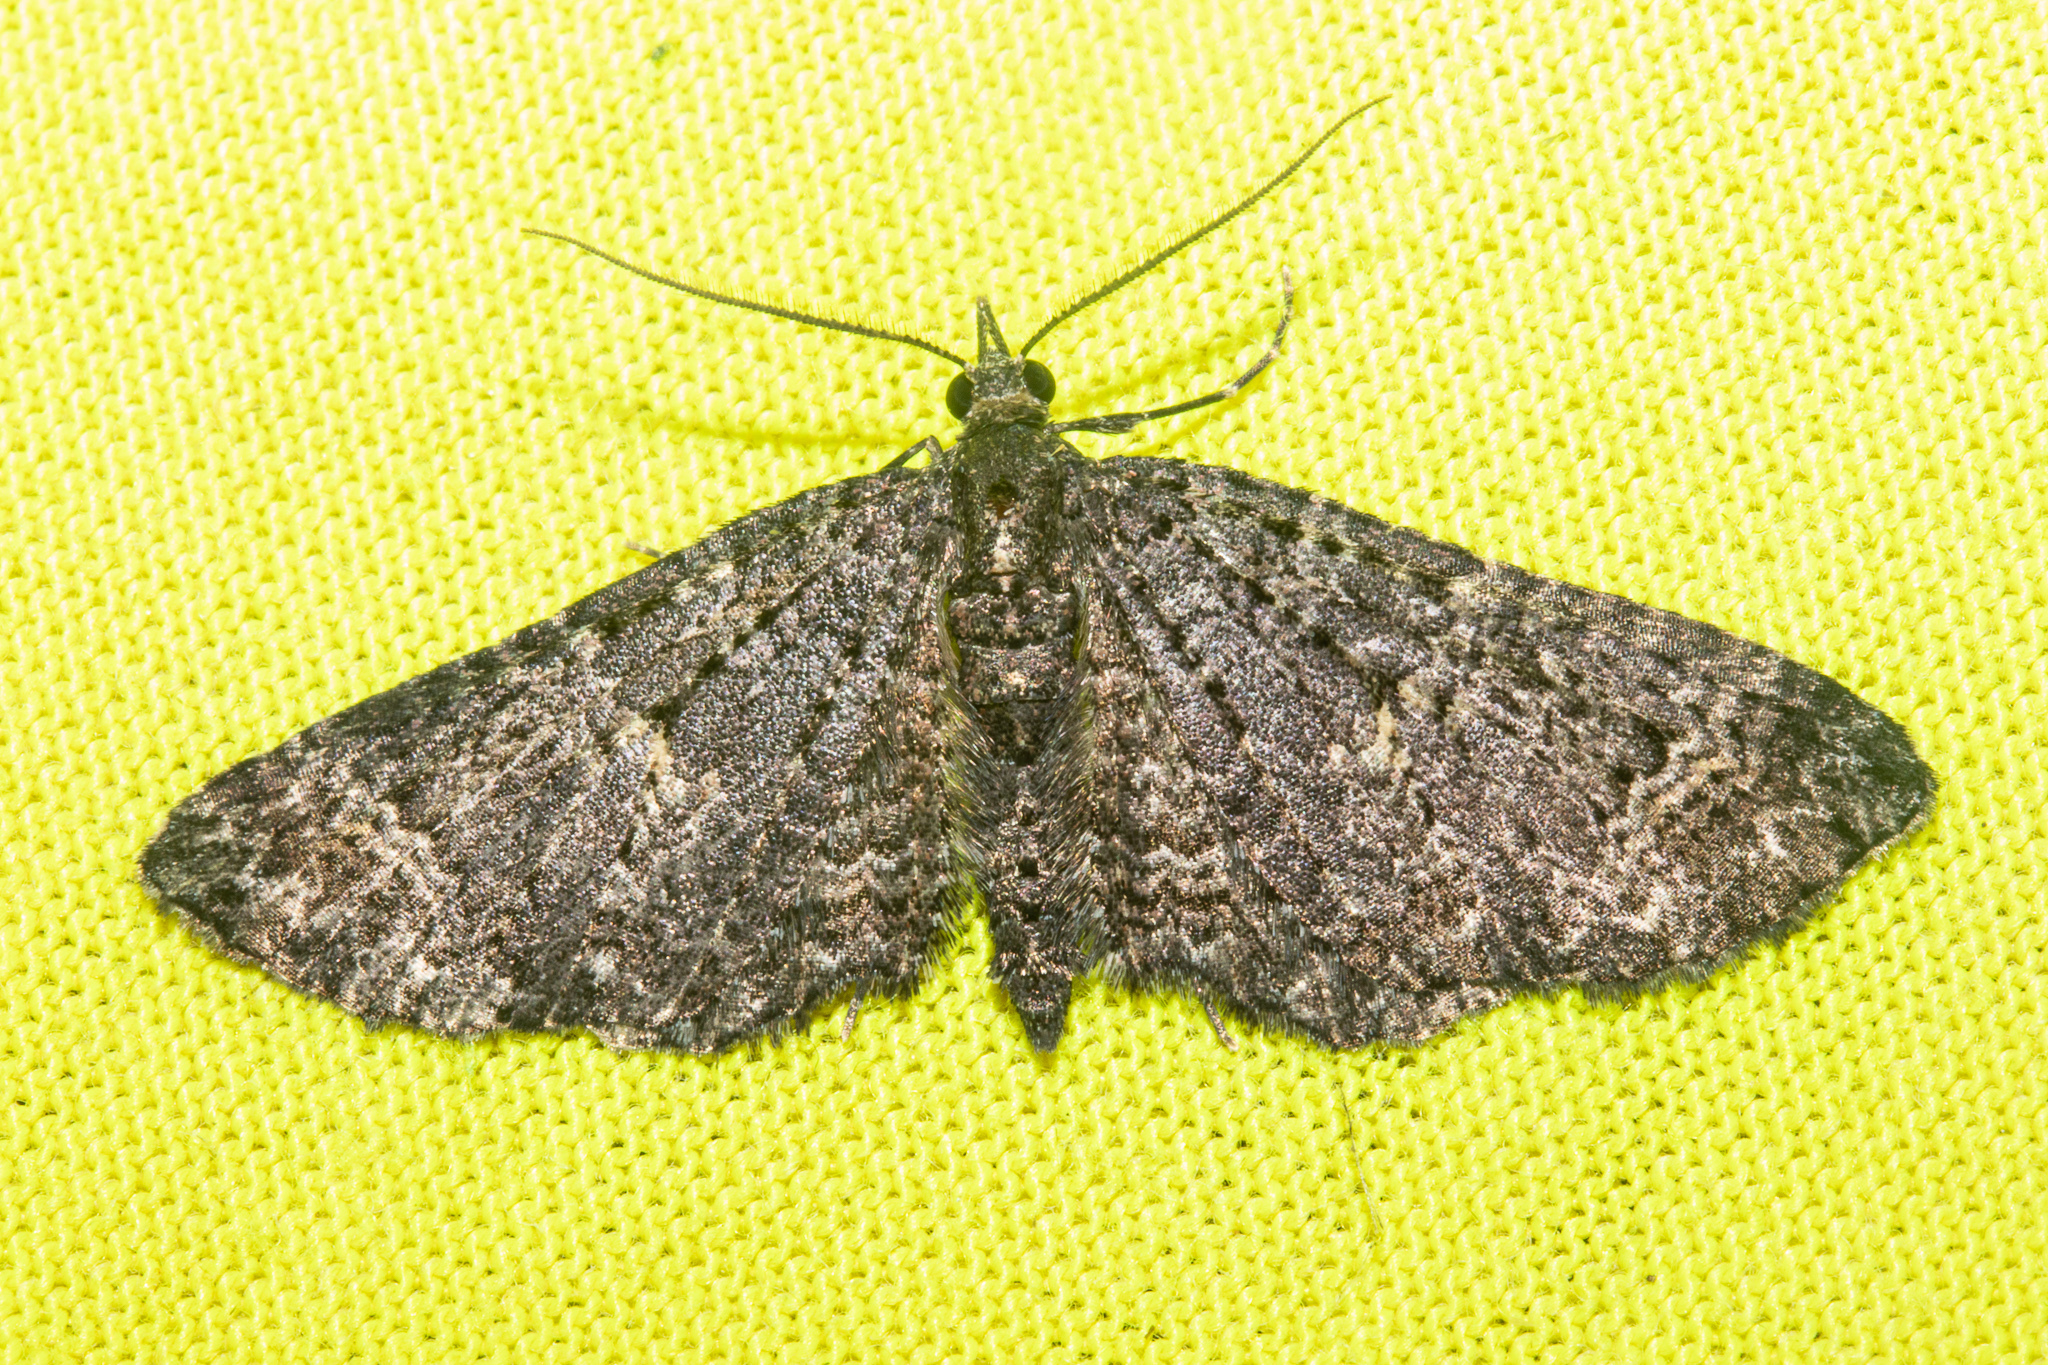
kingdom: Animalia
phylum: Arthropoda
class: Insecta
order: Lepidoptera
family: Geometridae
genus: Pasiphila
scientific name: Pasiphila rubella
